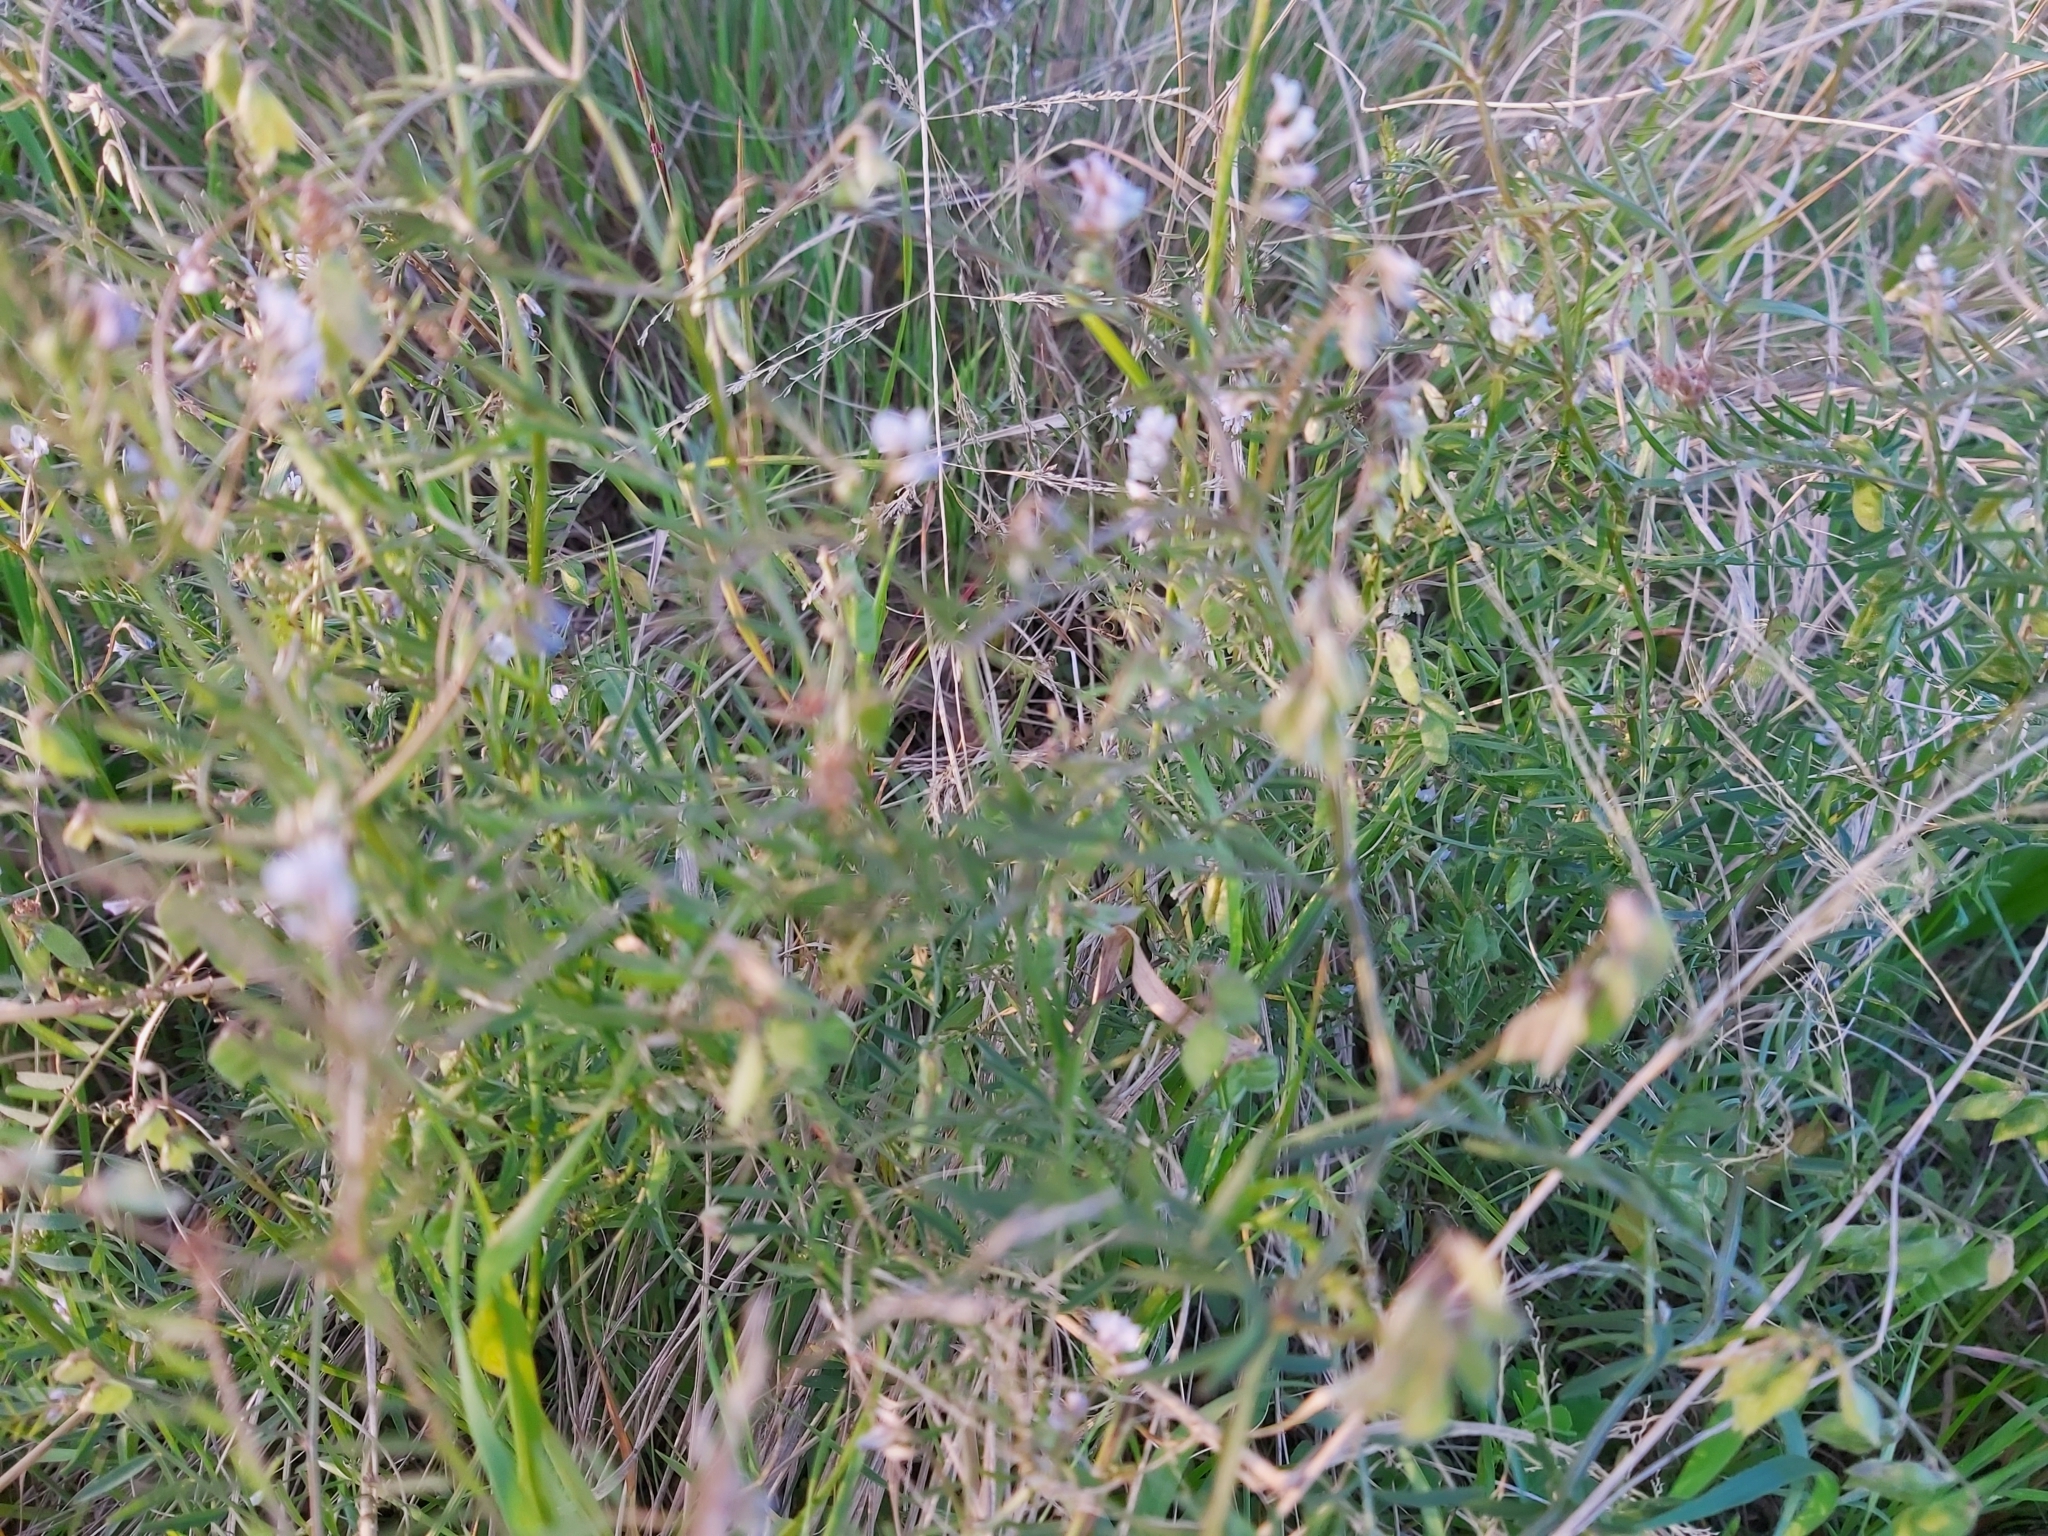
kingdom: Plantae
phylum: Tracheophyta
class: Magnoliopsida
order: Fabales
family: Fabaceae
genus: Vicia
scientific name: Vicia hirsuta
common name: Tiny vetch
